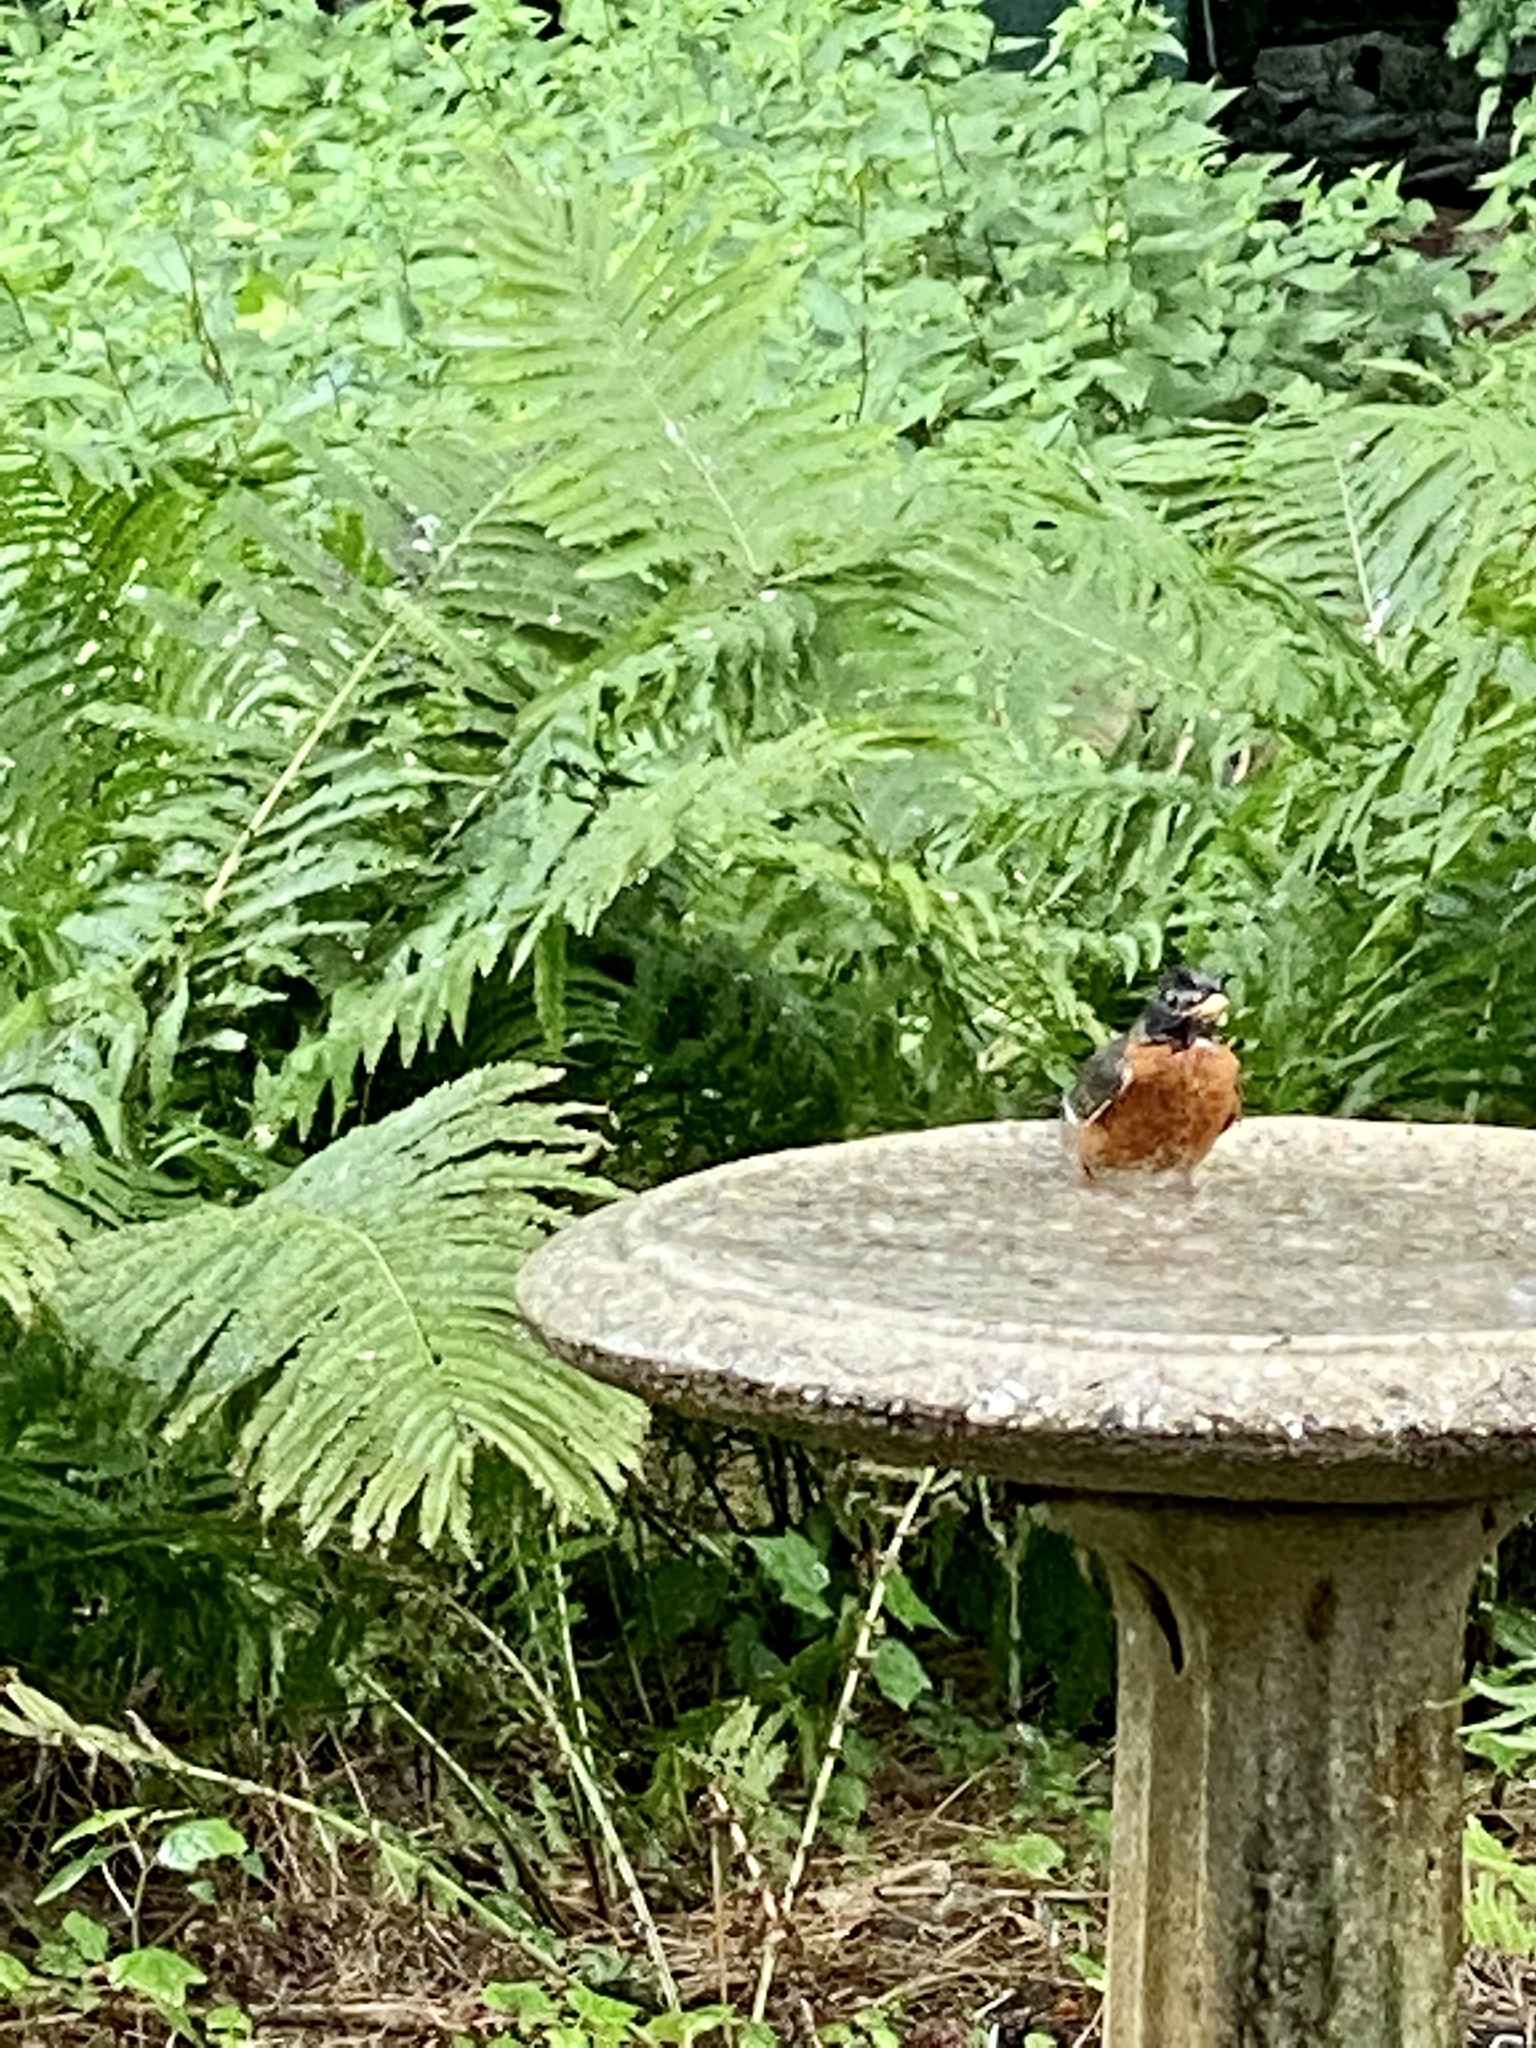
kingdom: Animalia
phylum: Chordata
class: Aves
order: Passeriformes
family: Turdidae
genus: Turdus
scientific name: Turdus migratorius
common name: American robin
